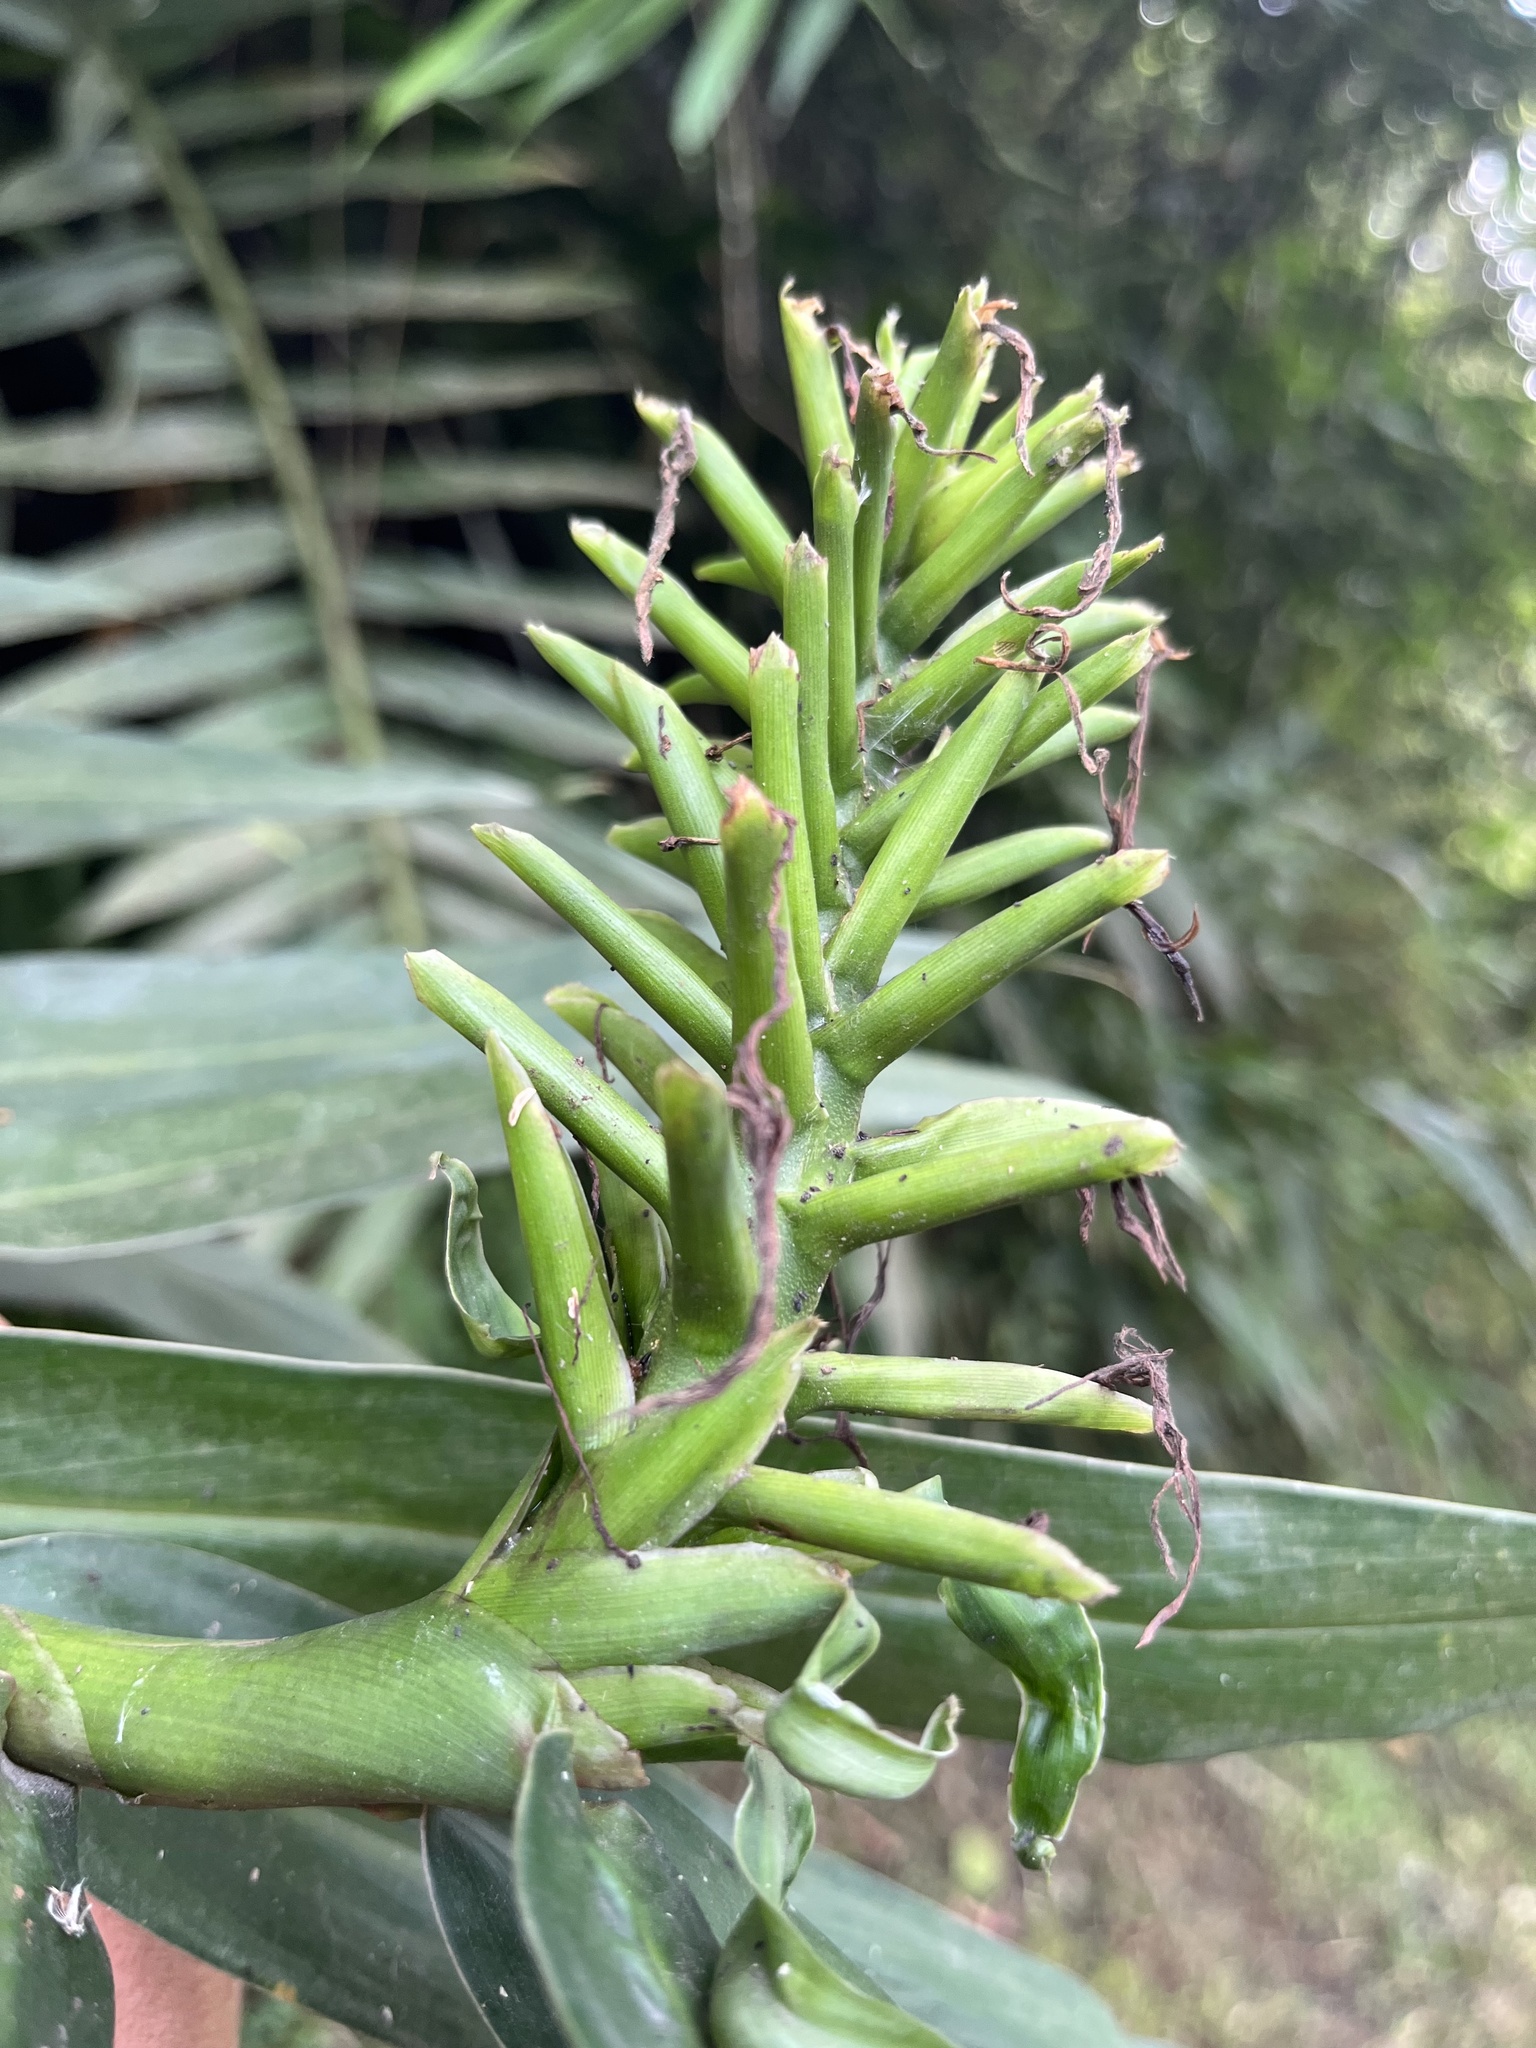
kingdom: Plantae
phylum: Tracheophyta
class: Liliopsida
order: Zingiberales
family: Zingiberaceae
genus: Hedychium
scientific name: Hedychium coronarium
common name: White garland-lily
